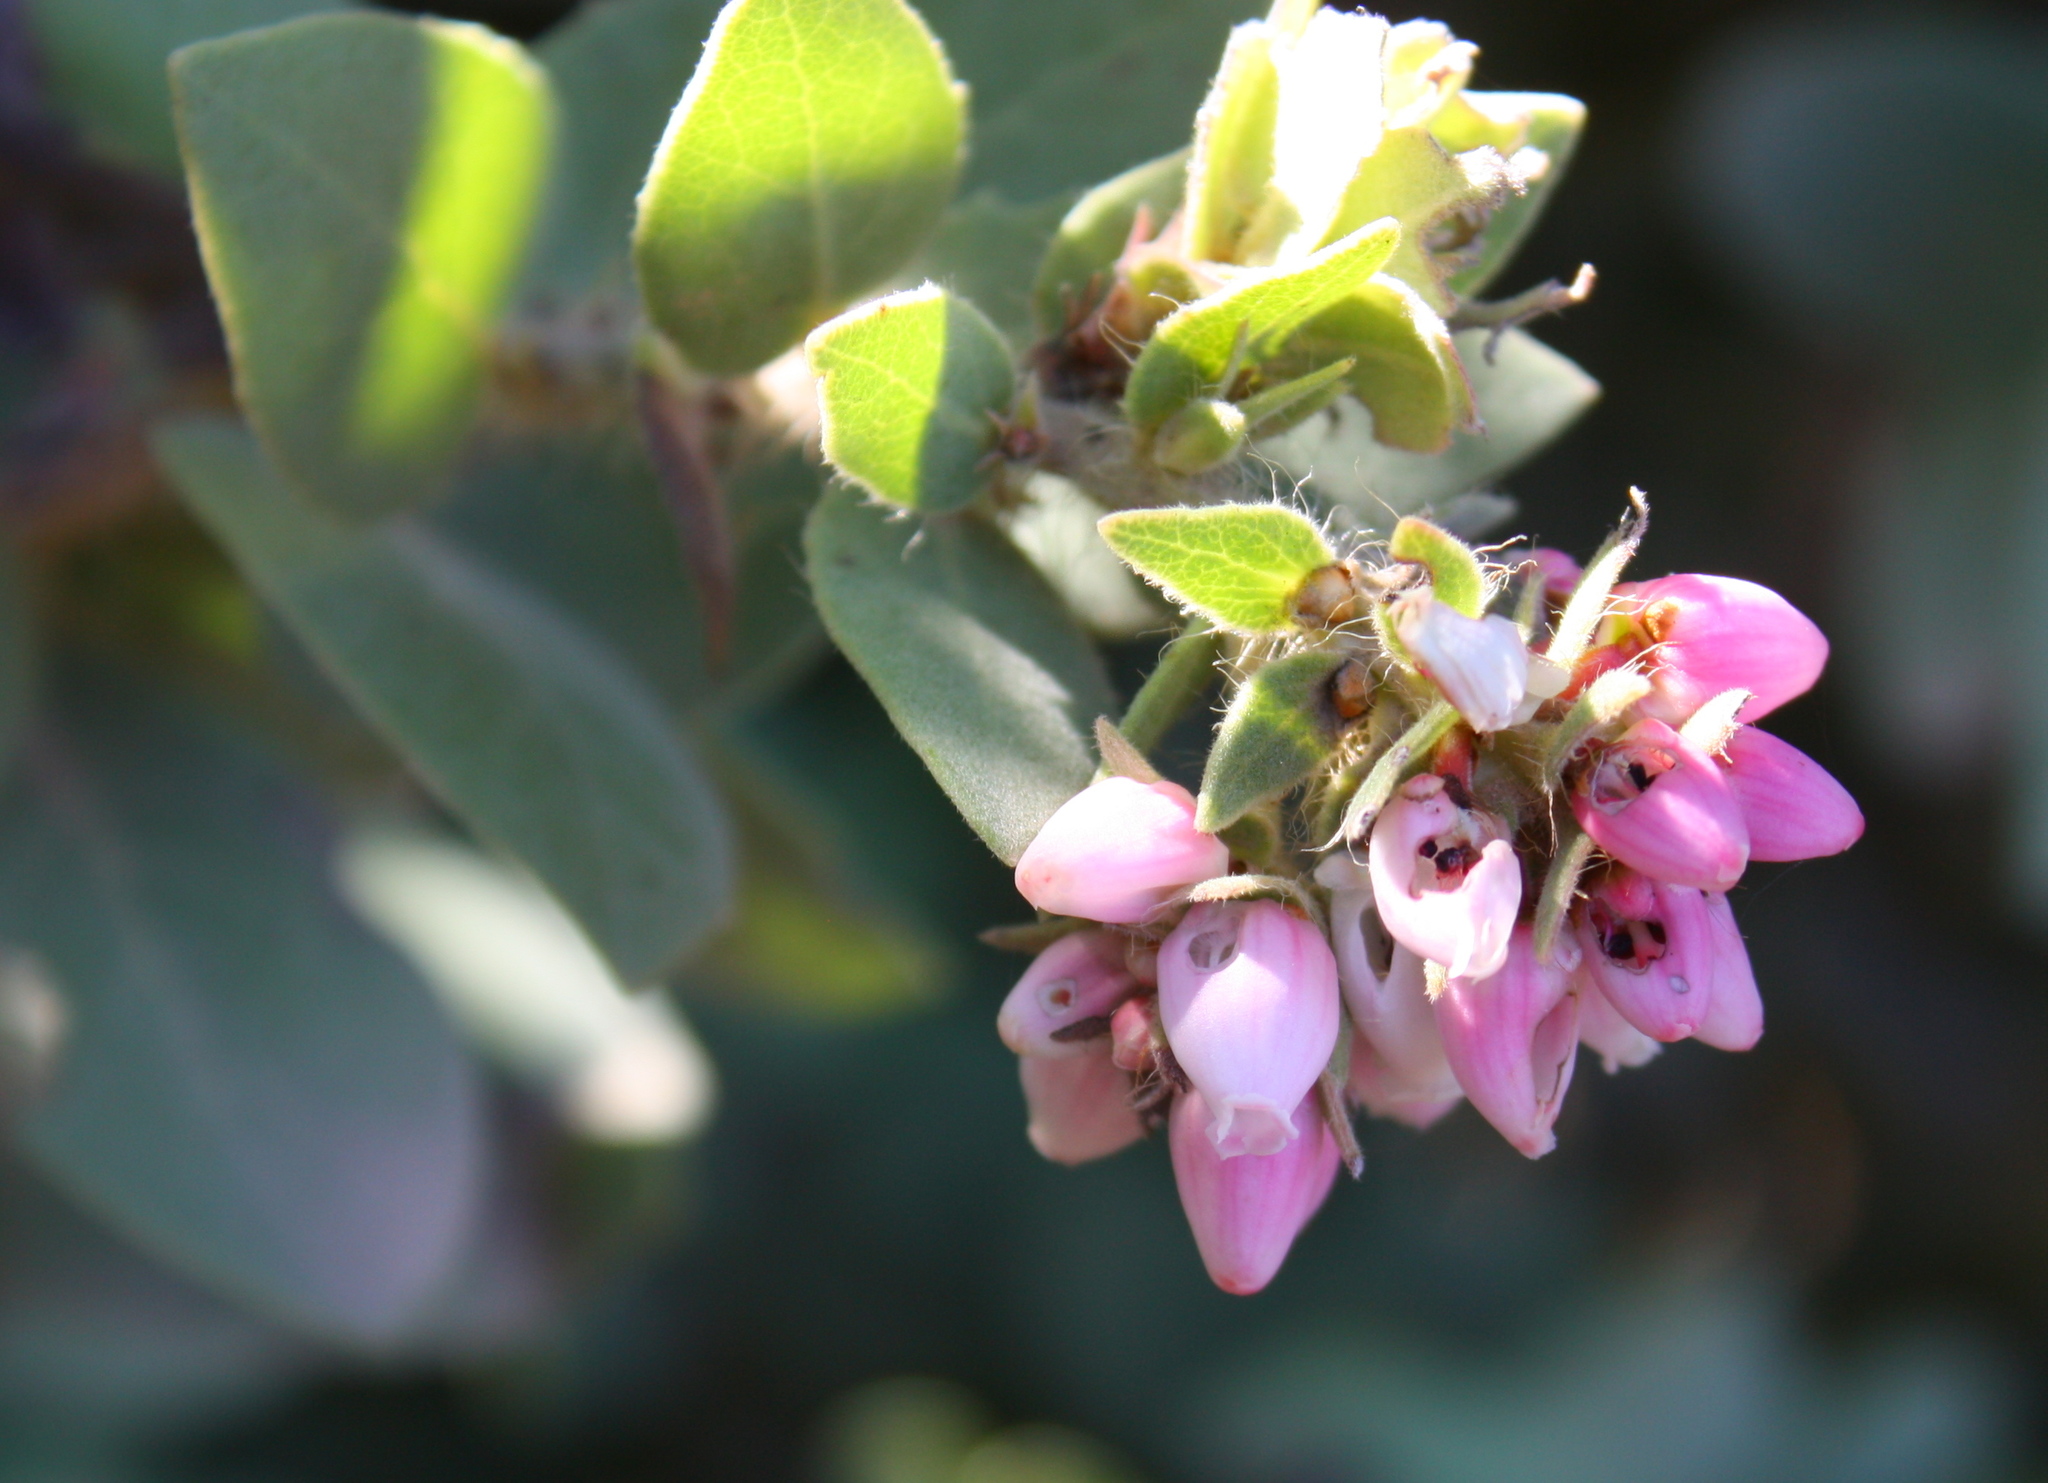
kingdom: Plantae
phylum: Tracheophyta
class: Magnoliopsida
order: Ericales
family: Ericaceae
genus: Arctostaphylos
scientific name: Arctostaphylos auriculata
